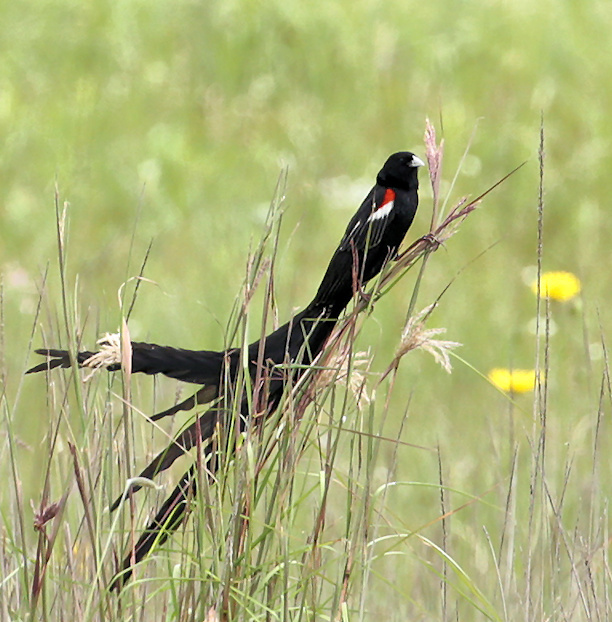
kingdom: Animalia
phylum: Chordata
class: Aves
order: Passeriformes
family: Ploceidae
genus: Euplectes
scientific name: Euplectes progne
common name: Long-tailed widowbird
